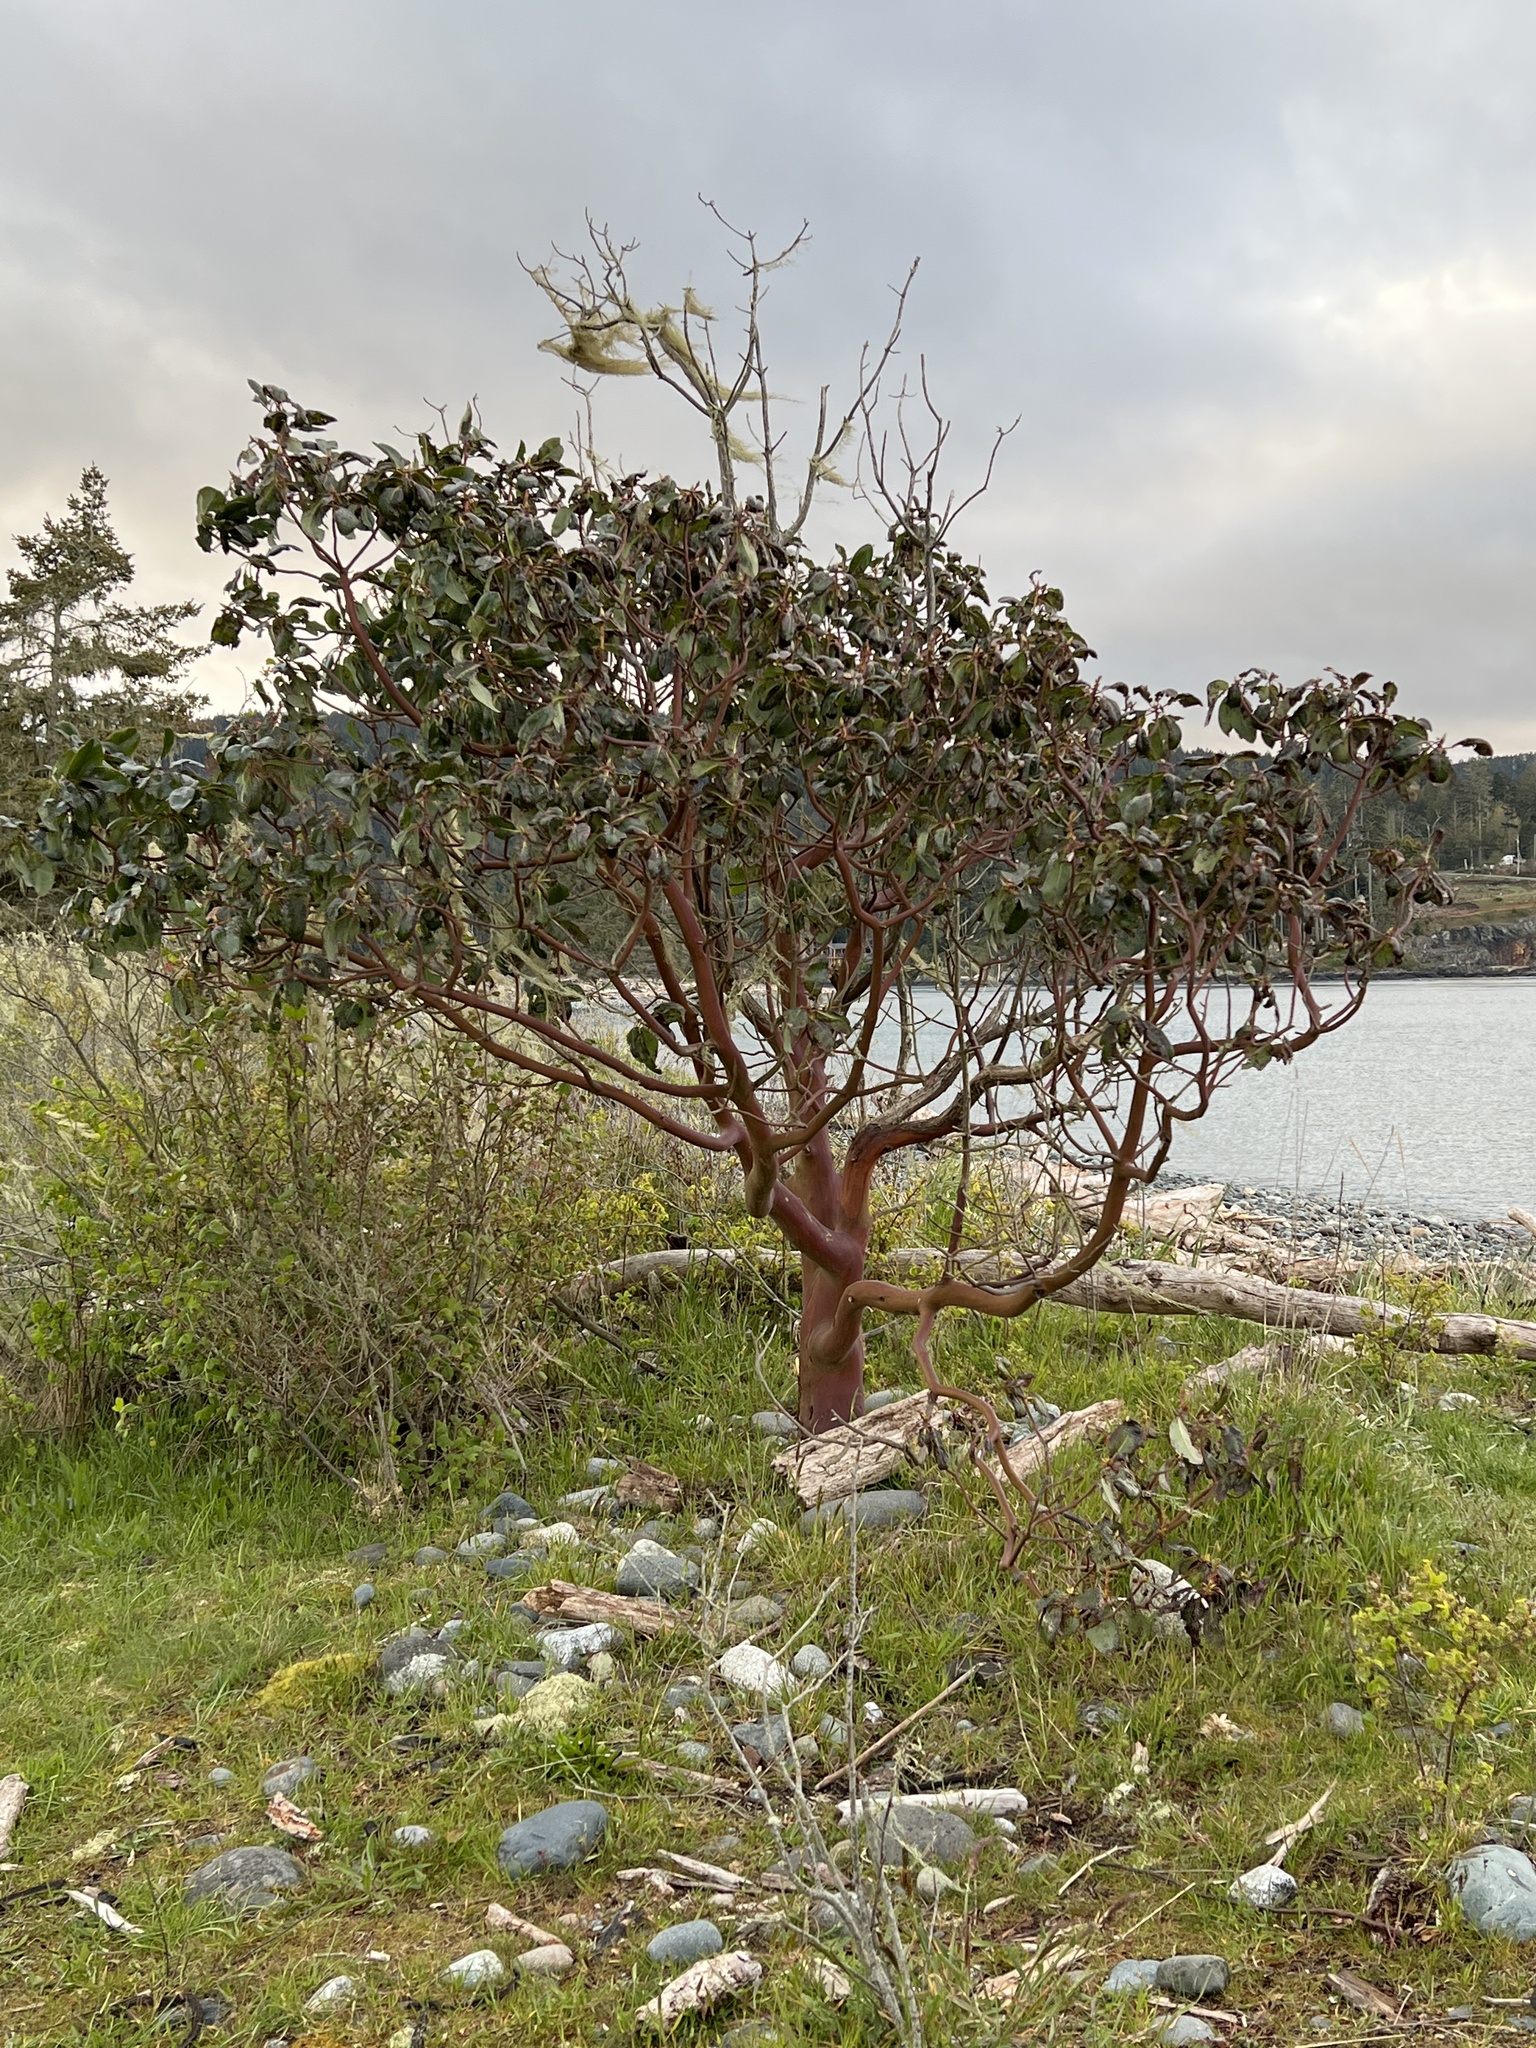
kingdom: Plantae
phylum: Tracheophyta
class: Magnoliopsida
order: Ericales
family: Ericaceae
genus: Arbutus
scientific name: Arbutus menziesii
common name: Pacific madrone
